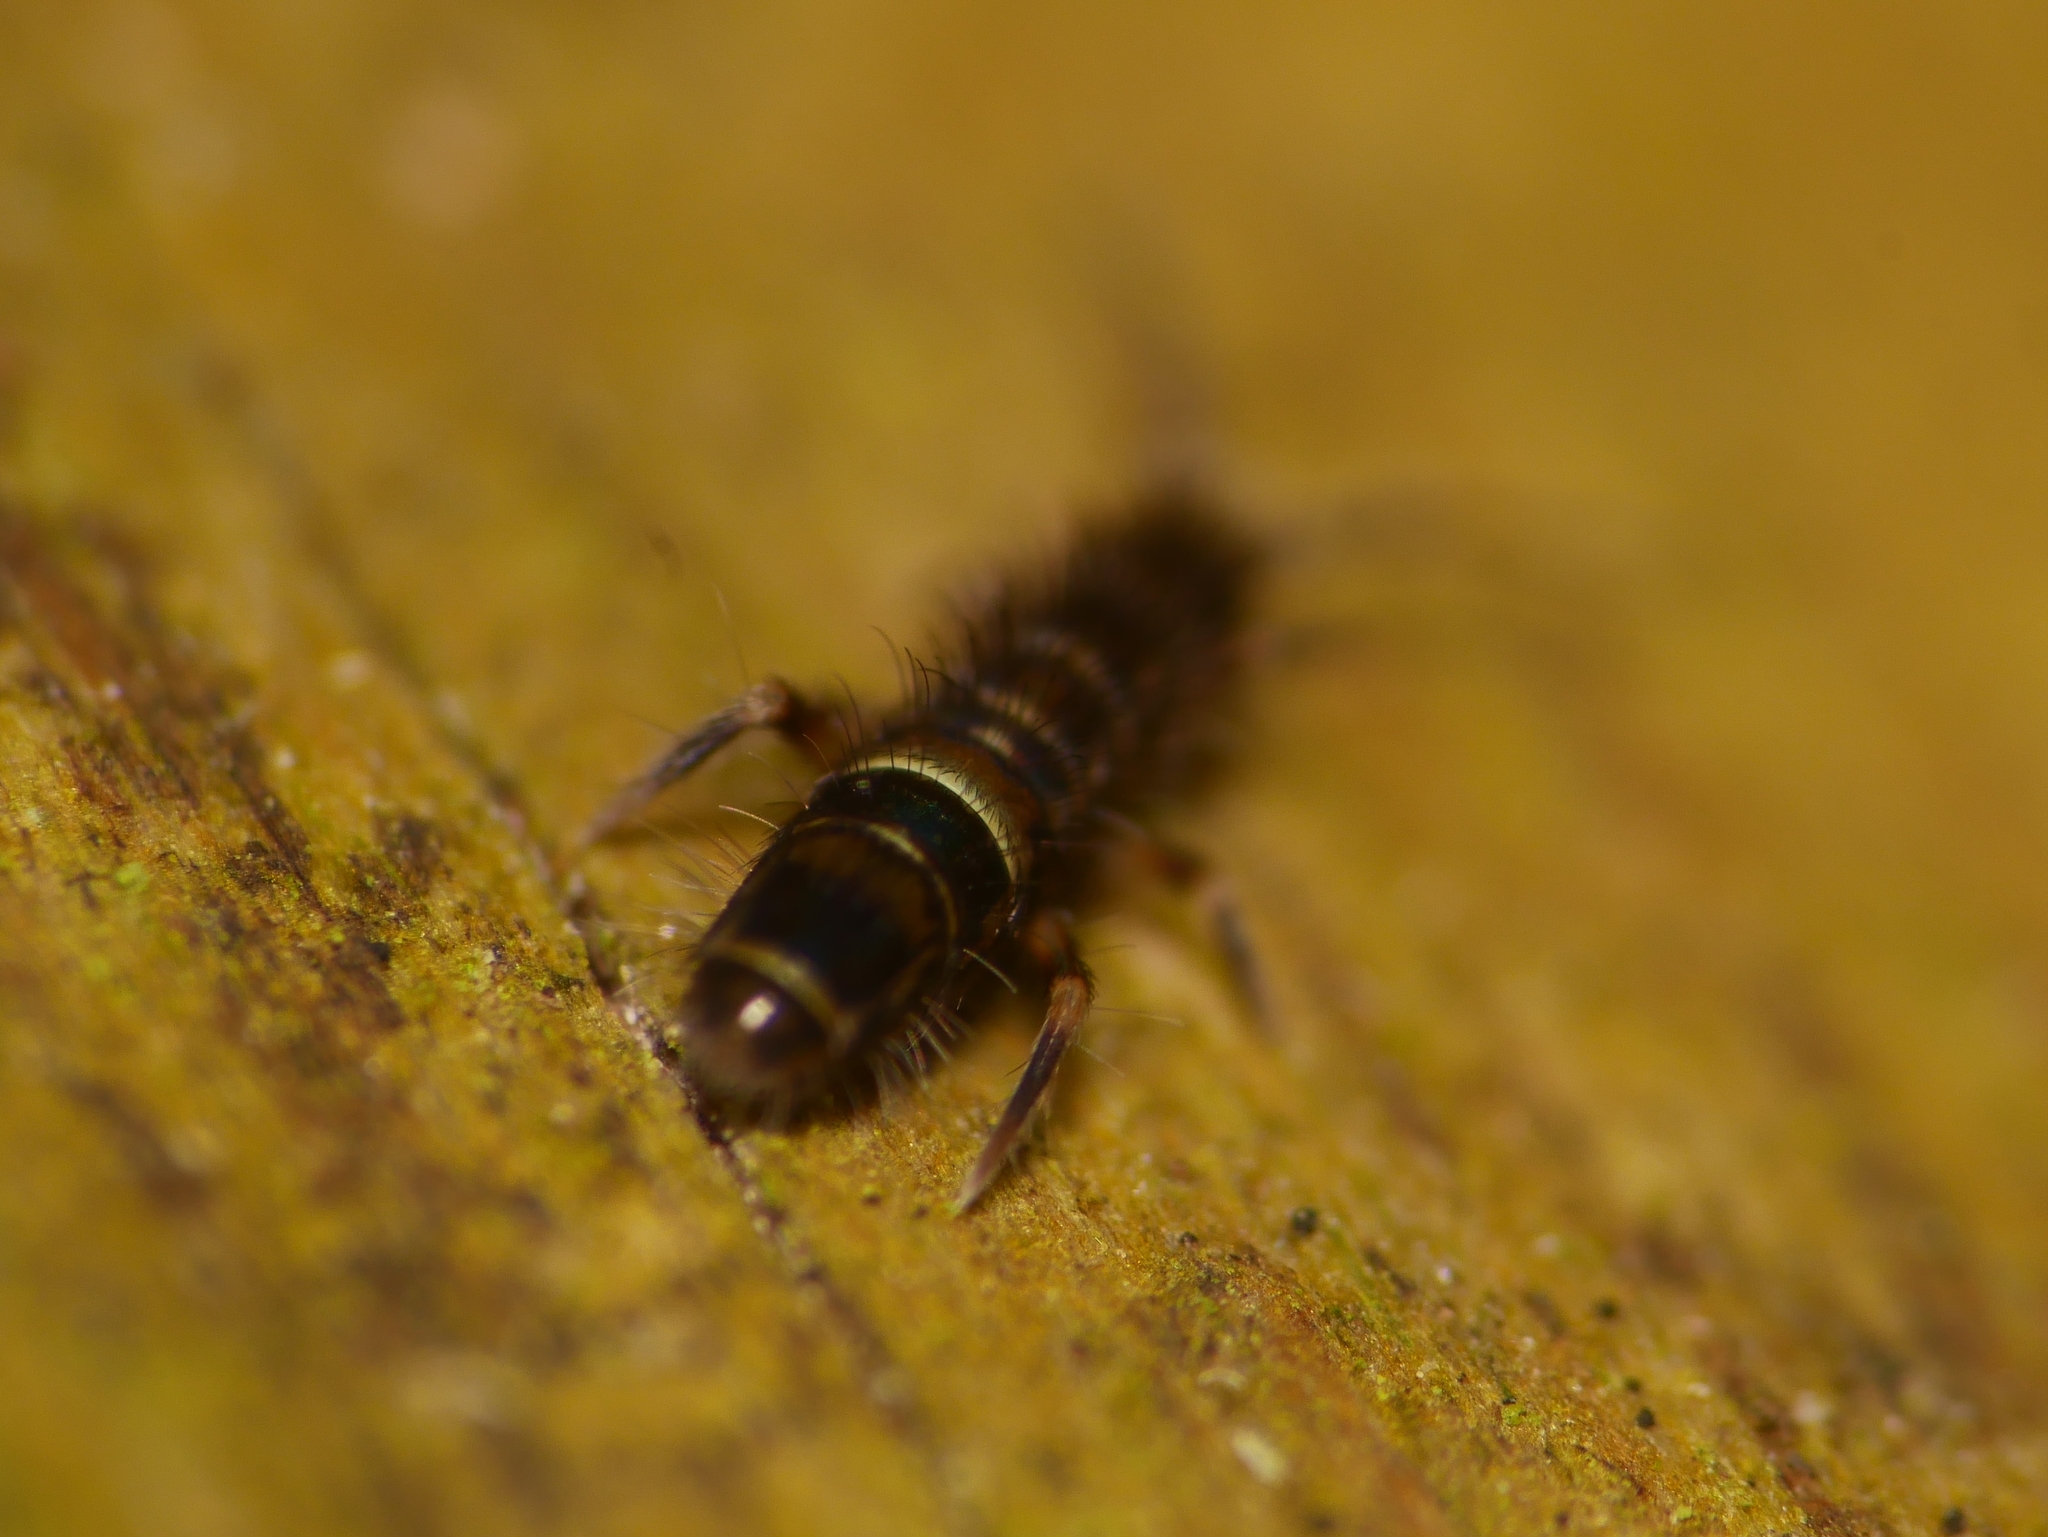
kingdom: Animalia
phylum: Arthropoda
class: Collembola
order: Entomobryomorpha
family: Orchesellidae
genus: Orchesella
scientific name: Orchesella cincta
